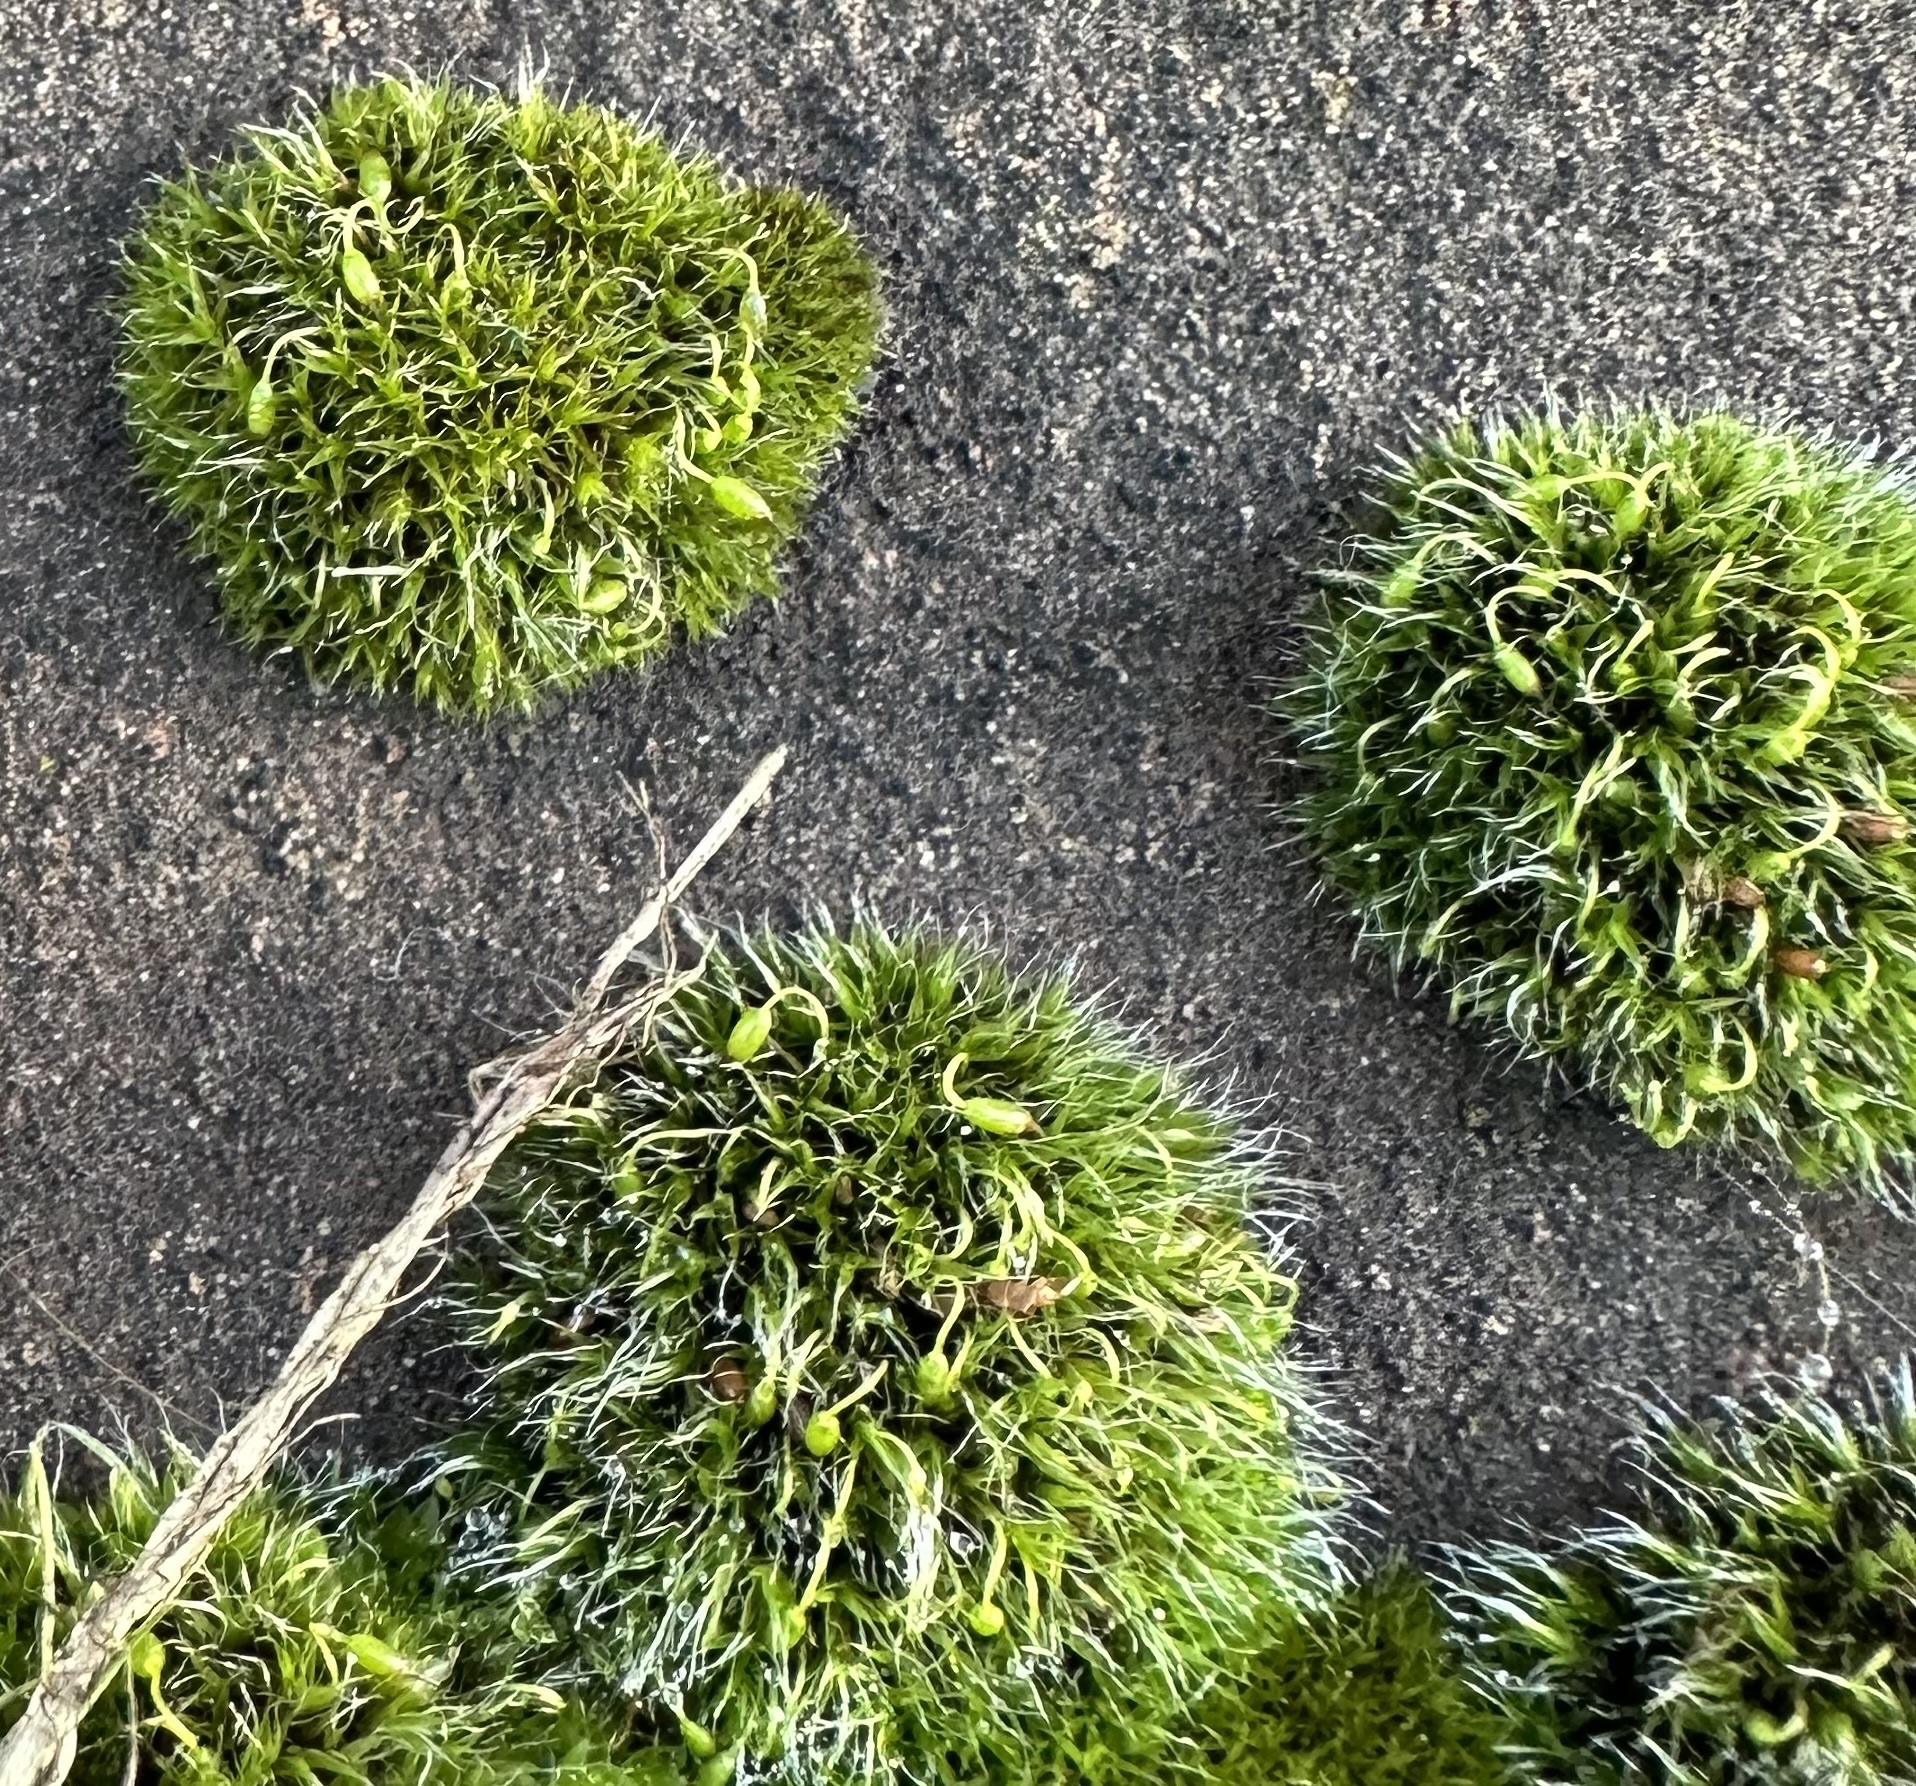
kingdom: Plantae
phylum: Bryophyta
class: Bryopsida
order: Grimmiales
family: Grimmiaceae
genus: Grimmia
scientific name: Grimmia pulvinata
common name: Grey-cushioned grimmia
